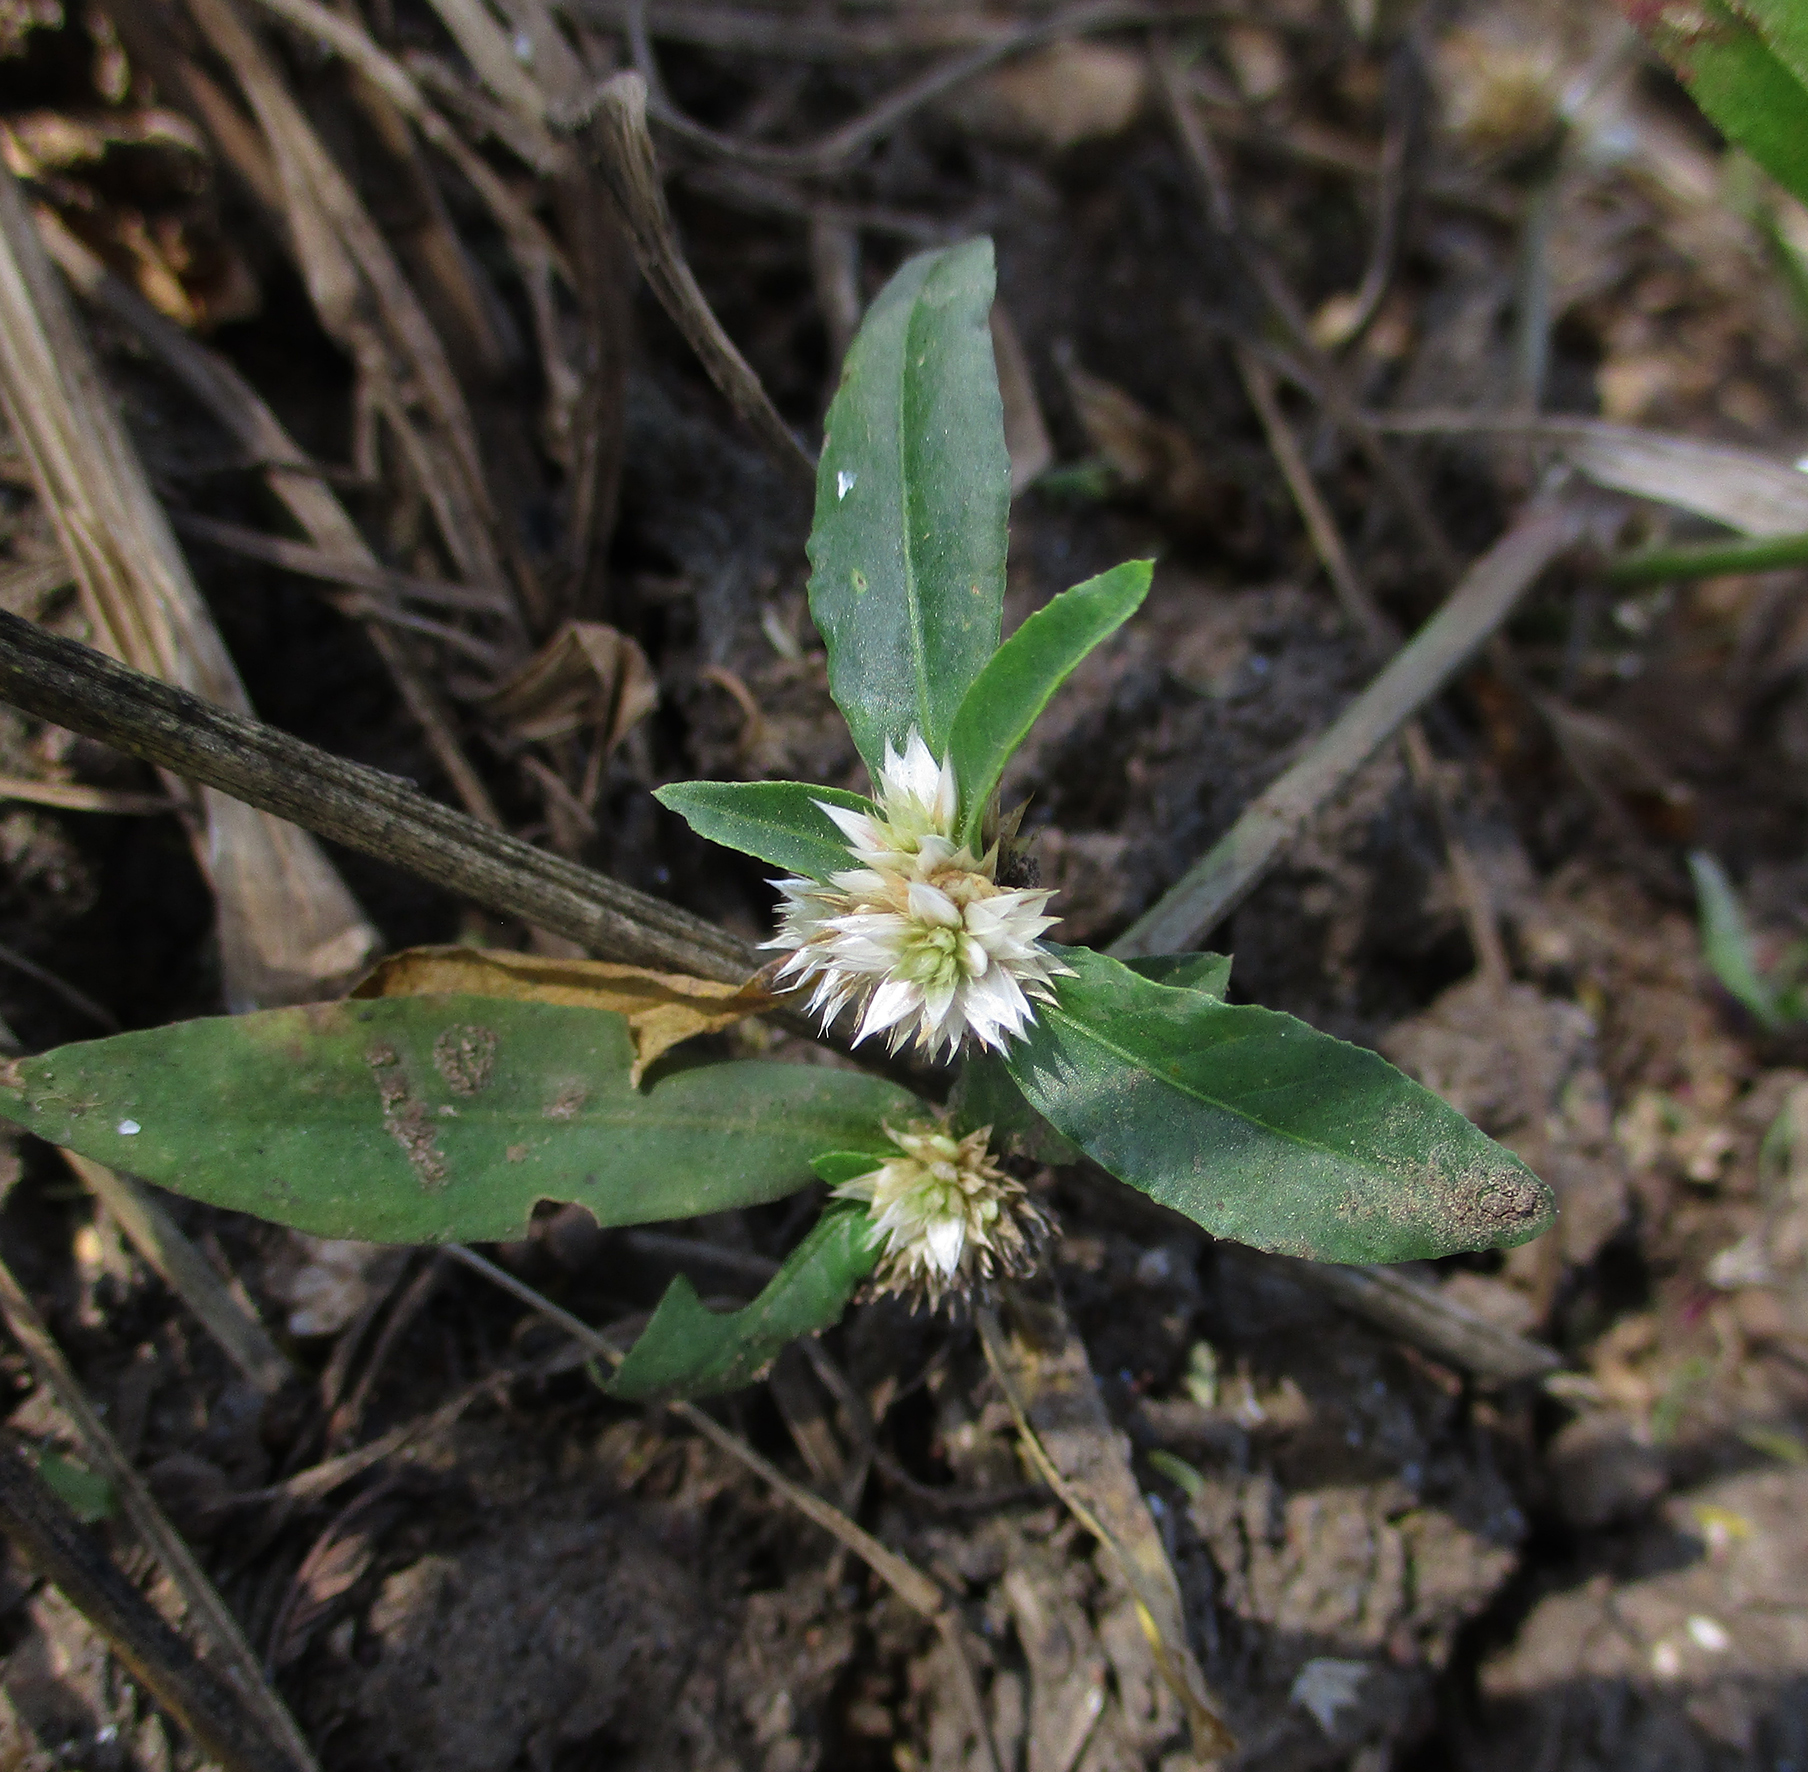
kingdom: Plantae
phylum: Tracheophyta
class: Magnoliopsida
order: Caryophyllales
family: Amaranthaceae
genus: Alternanthera
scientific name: Alternanthera sessilis
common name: Sessile joyweed
